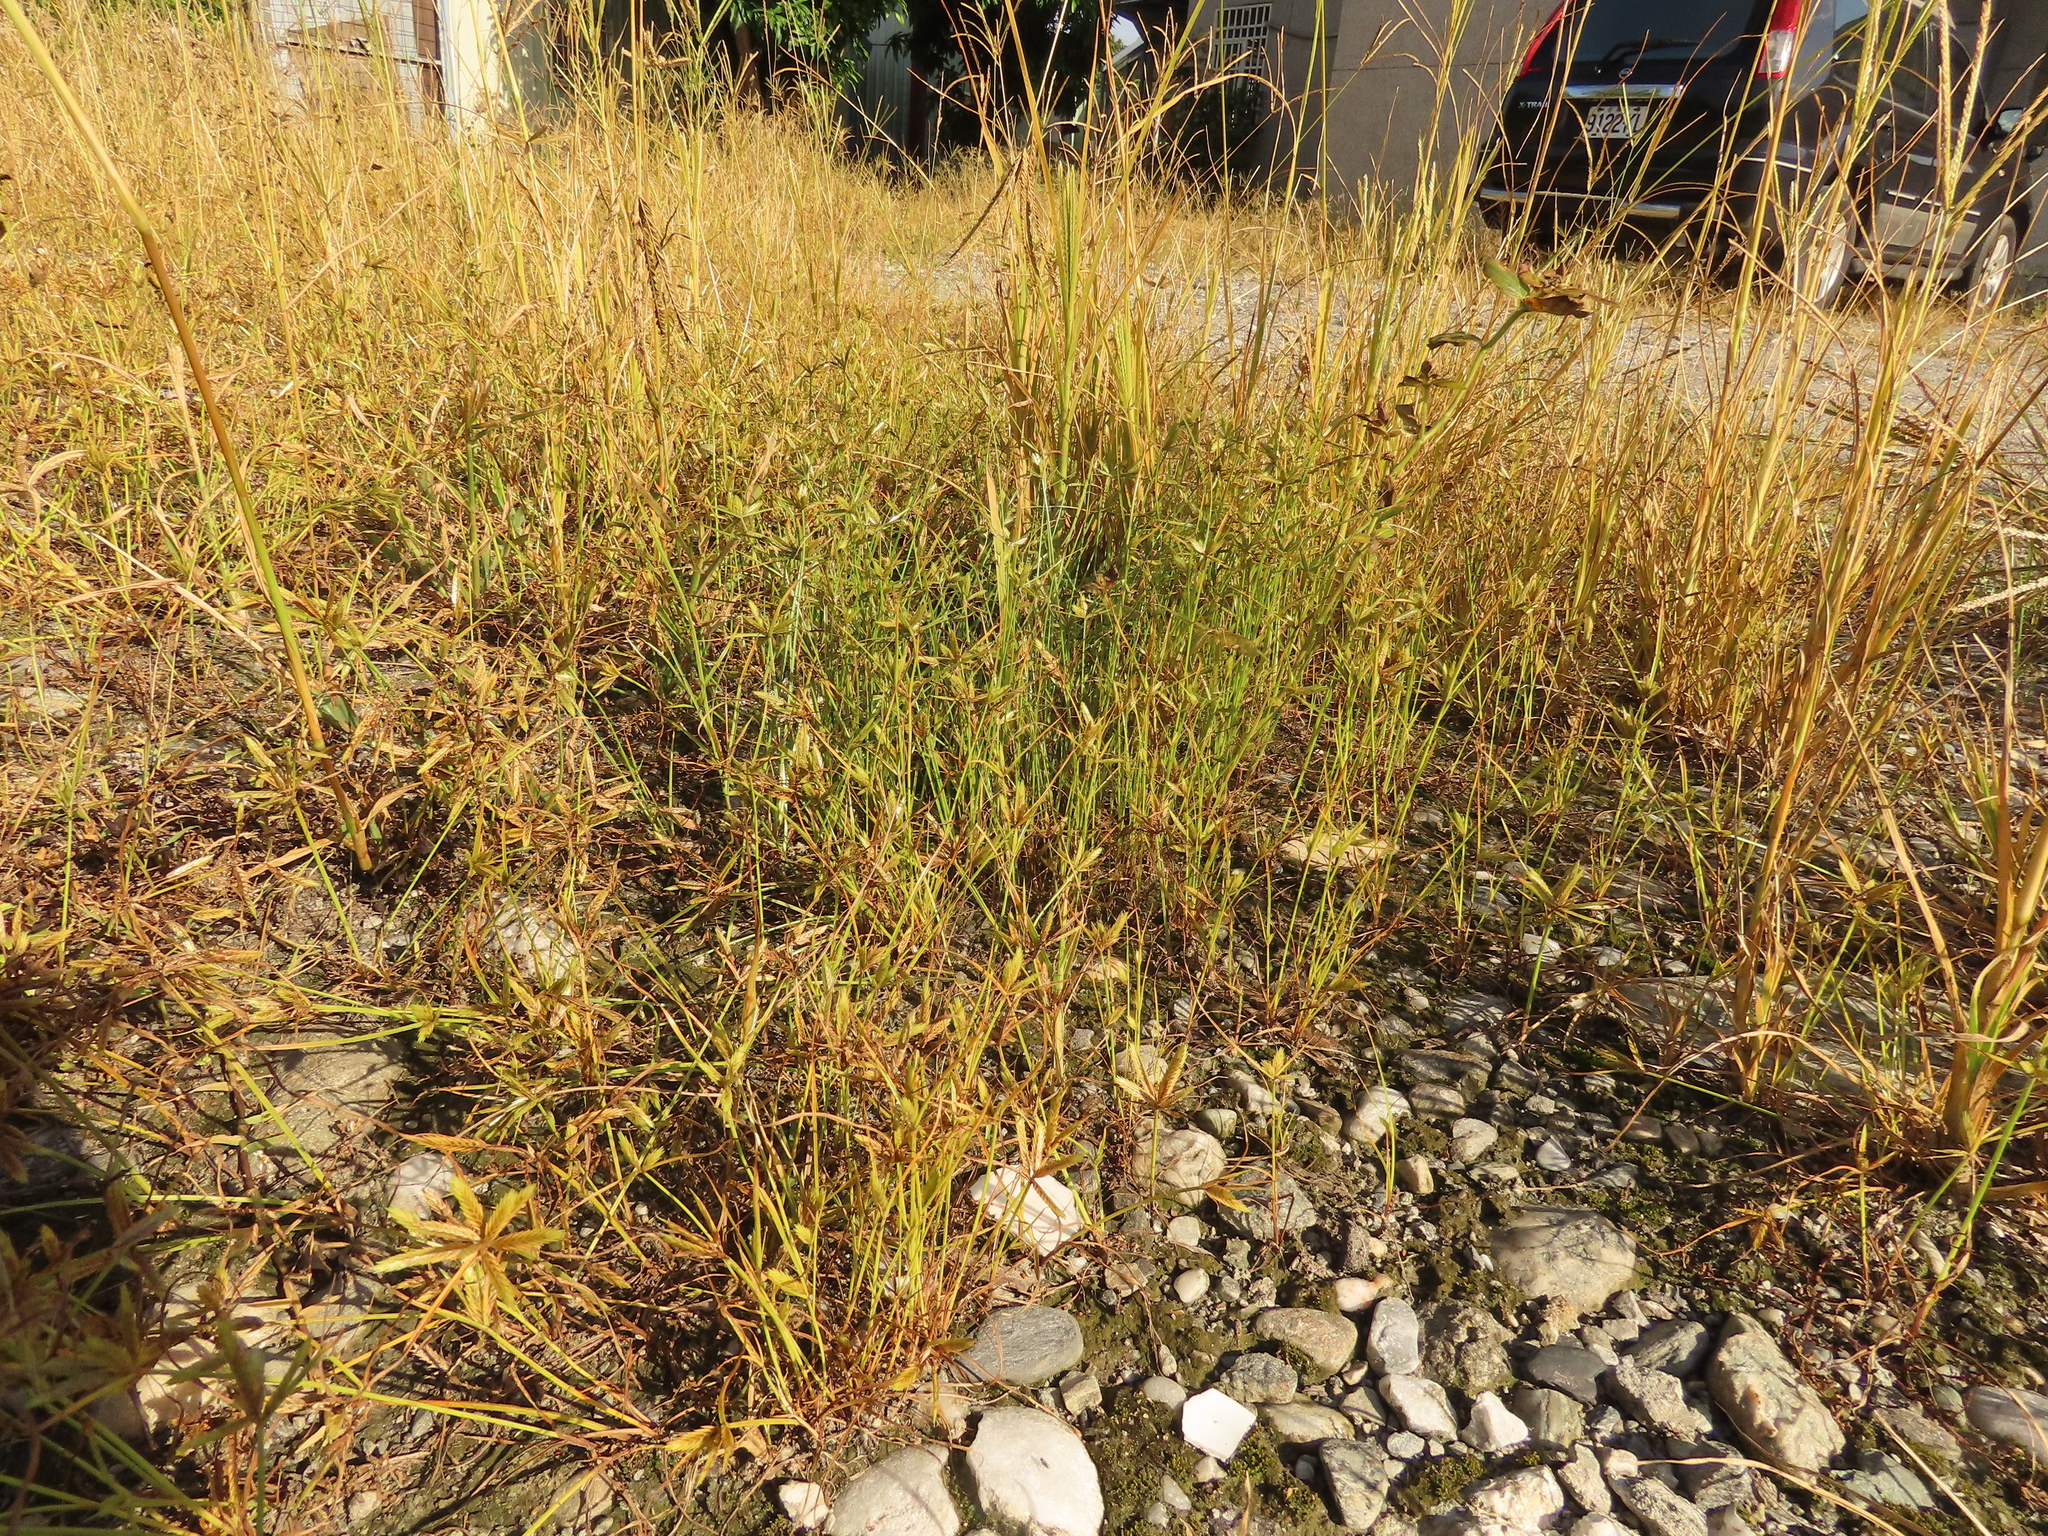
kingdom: Plantae
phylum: Tracheophyta
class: Liliopsida
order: Poales
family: Cyperaceae
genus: Cyperus
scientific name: Cyperus compressus
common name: Poorland flatsedge
